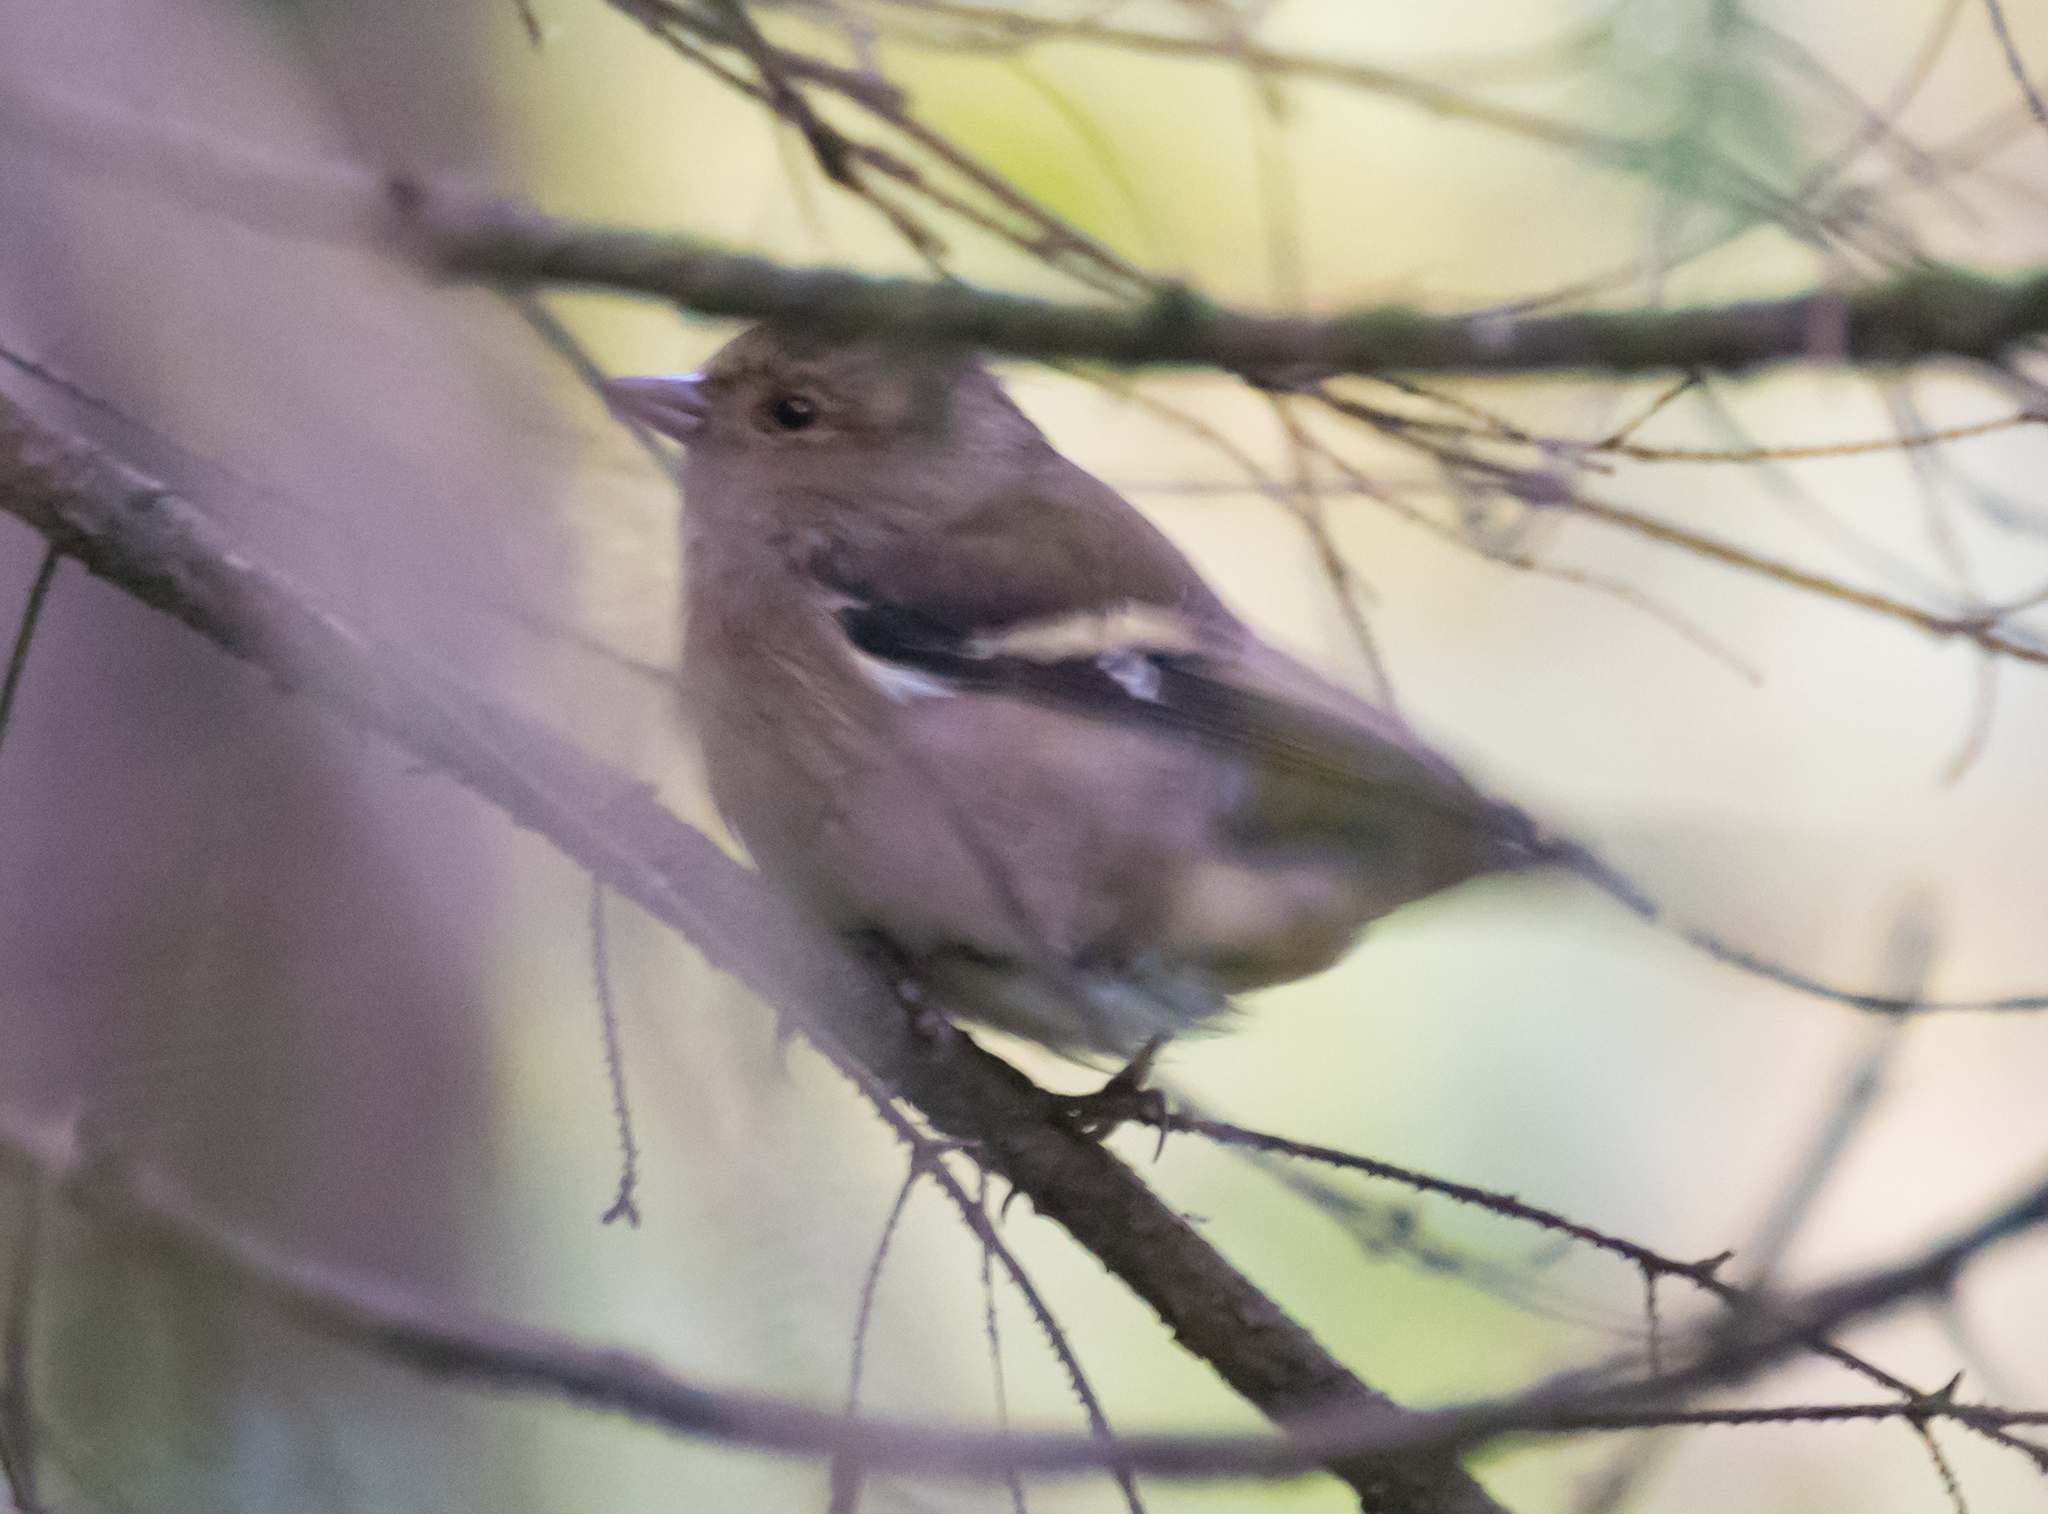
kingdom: Animalia
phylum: Chordata
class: Aves
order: Passeriformes
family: Fringillidae
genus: Fringilla
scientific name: Fringilla coelebs
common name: Common chaffinch
